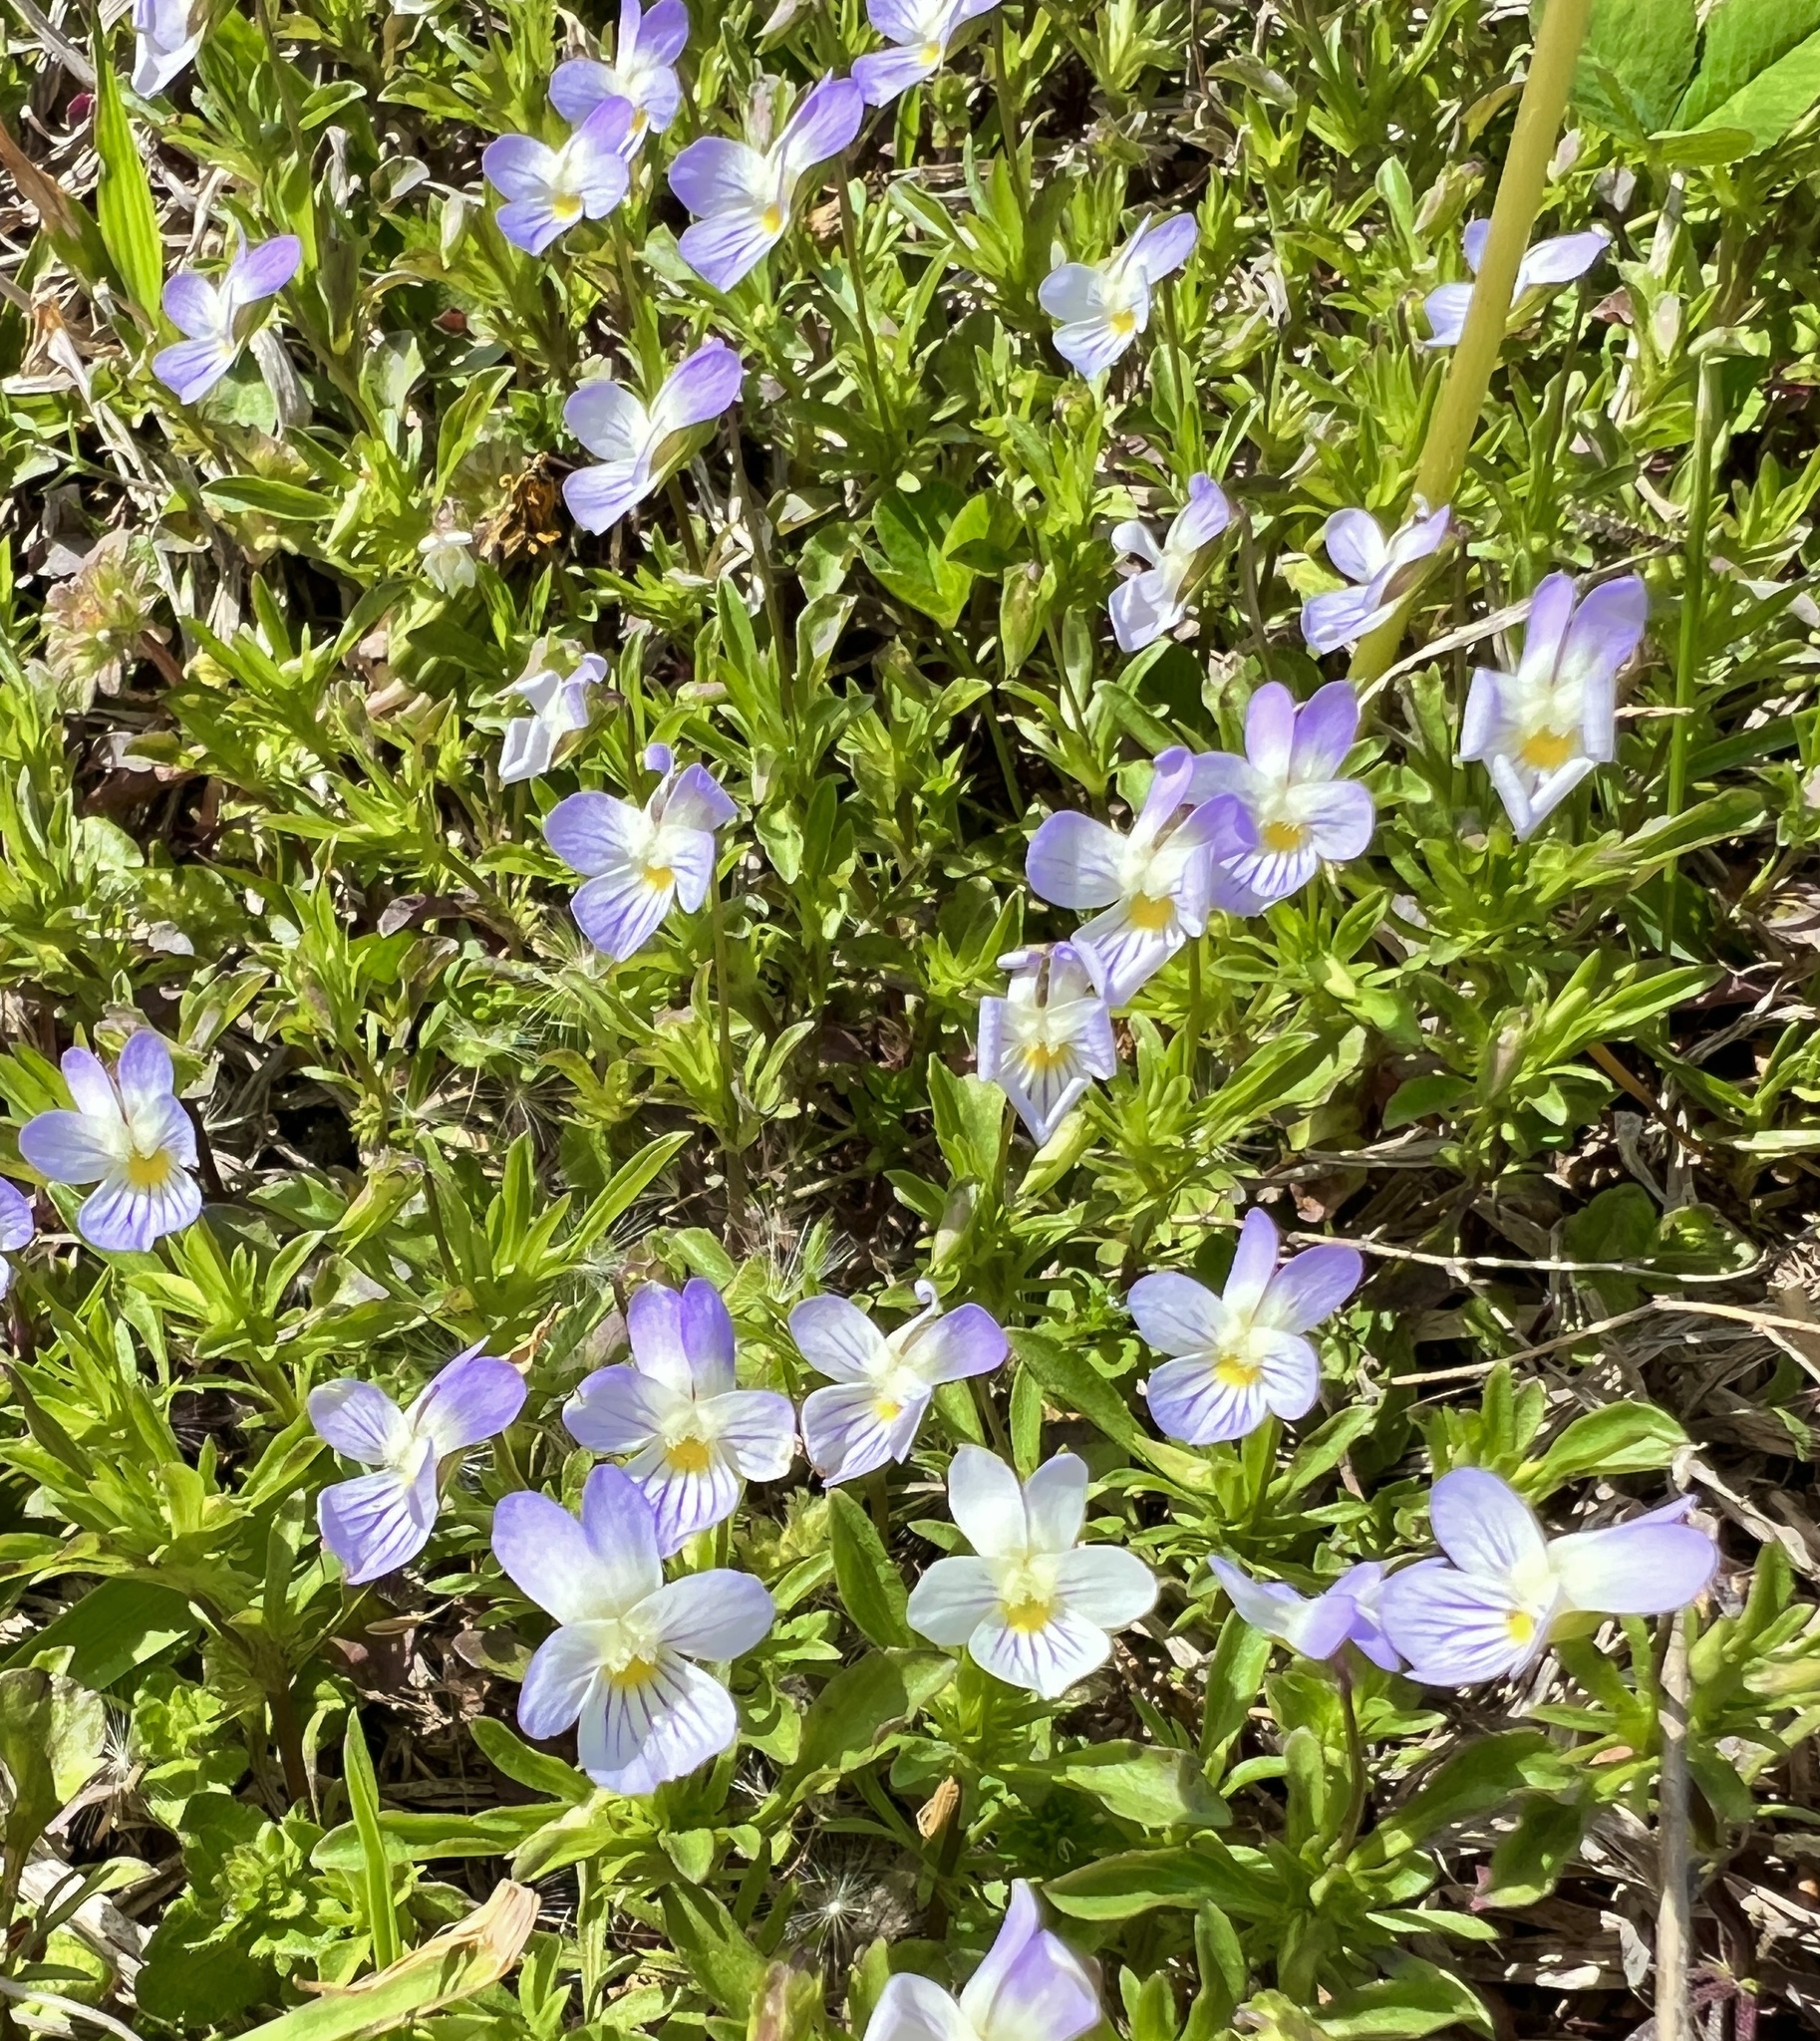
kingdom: Plantae
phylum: Tracheophyta
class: Magnoliopsida
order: Malpighiales
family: Violaceae
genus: Viola
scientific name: Viola rafinesquei
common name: American field pansy
